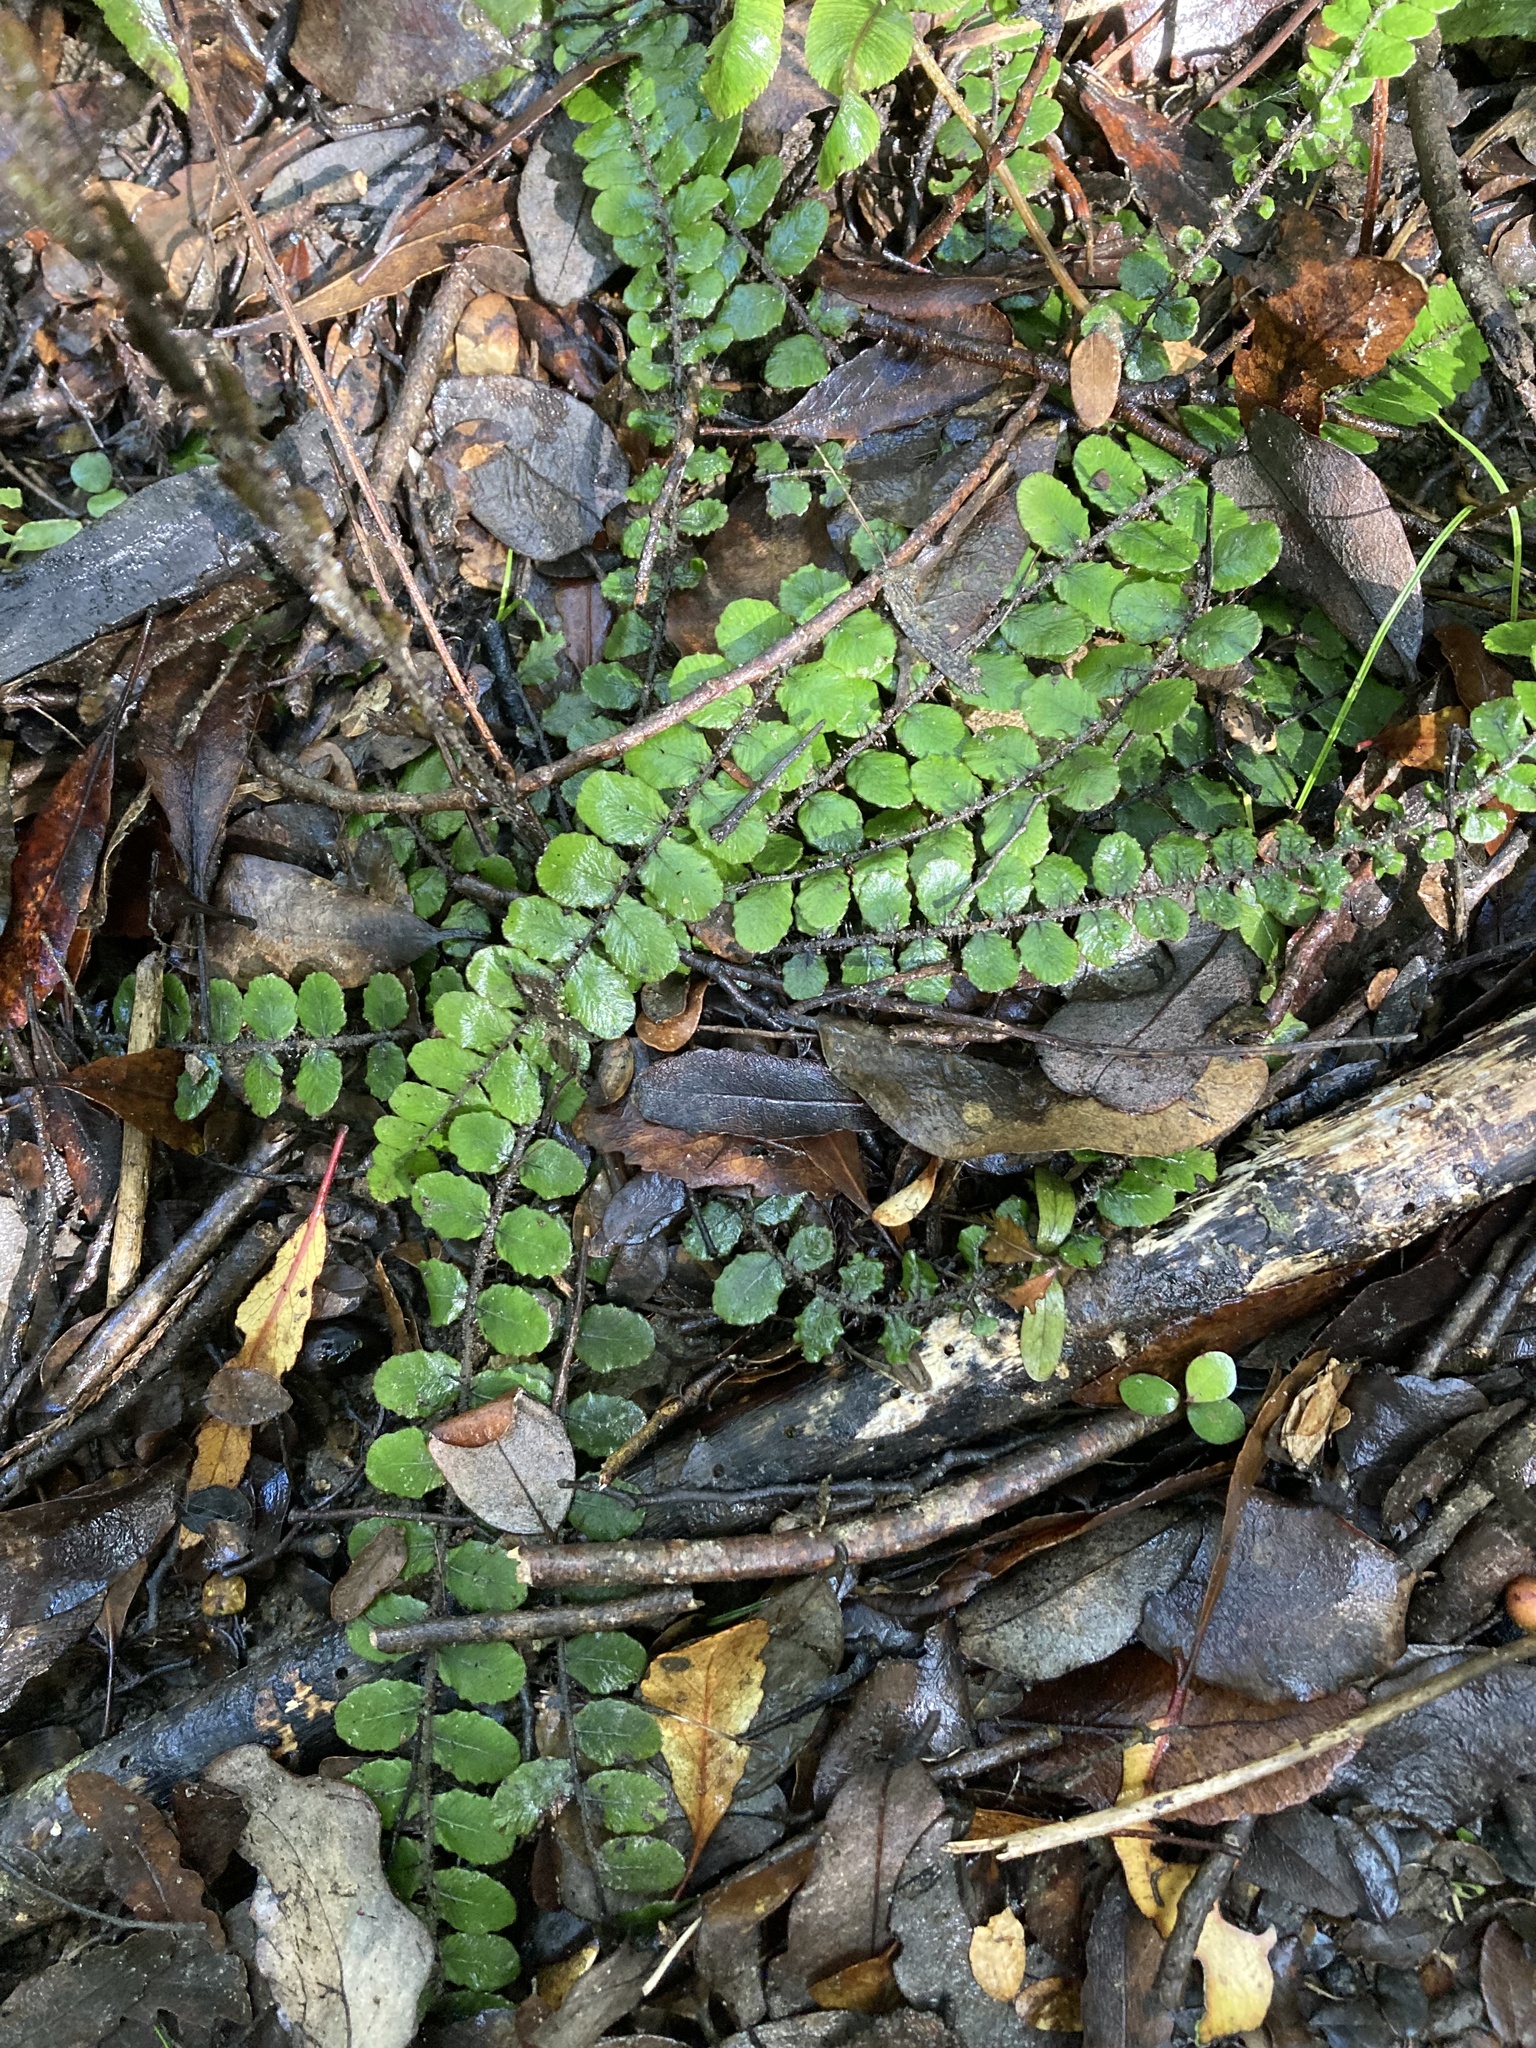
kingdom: Plantae
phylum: Tracheophyta
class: Polypodiopsida
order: Polypodiales
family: Blechnaceae
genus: Cranfillia
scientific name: Cranfillia fluviatilis
